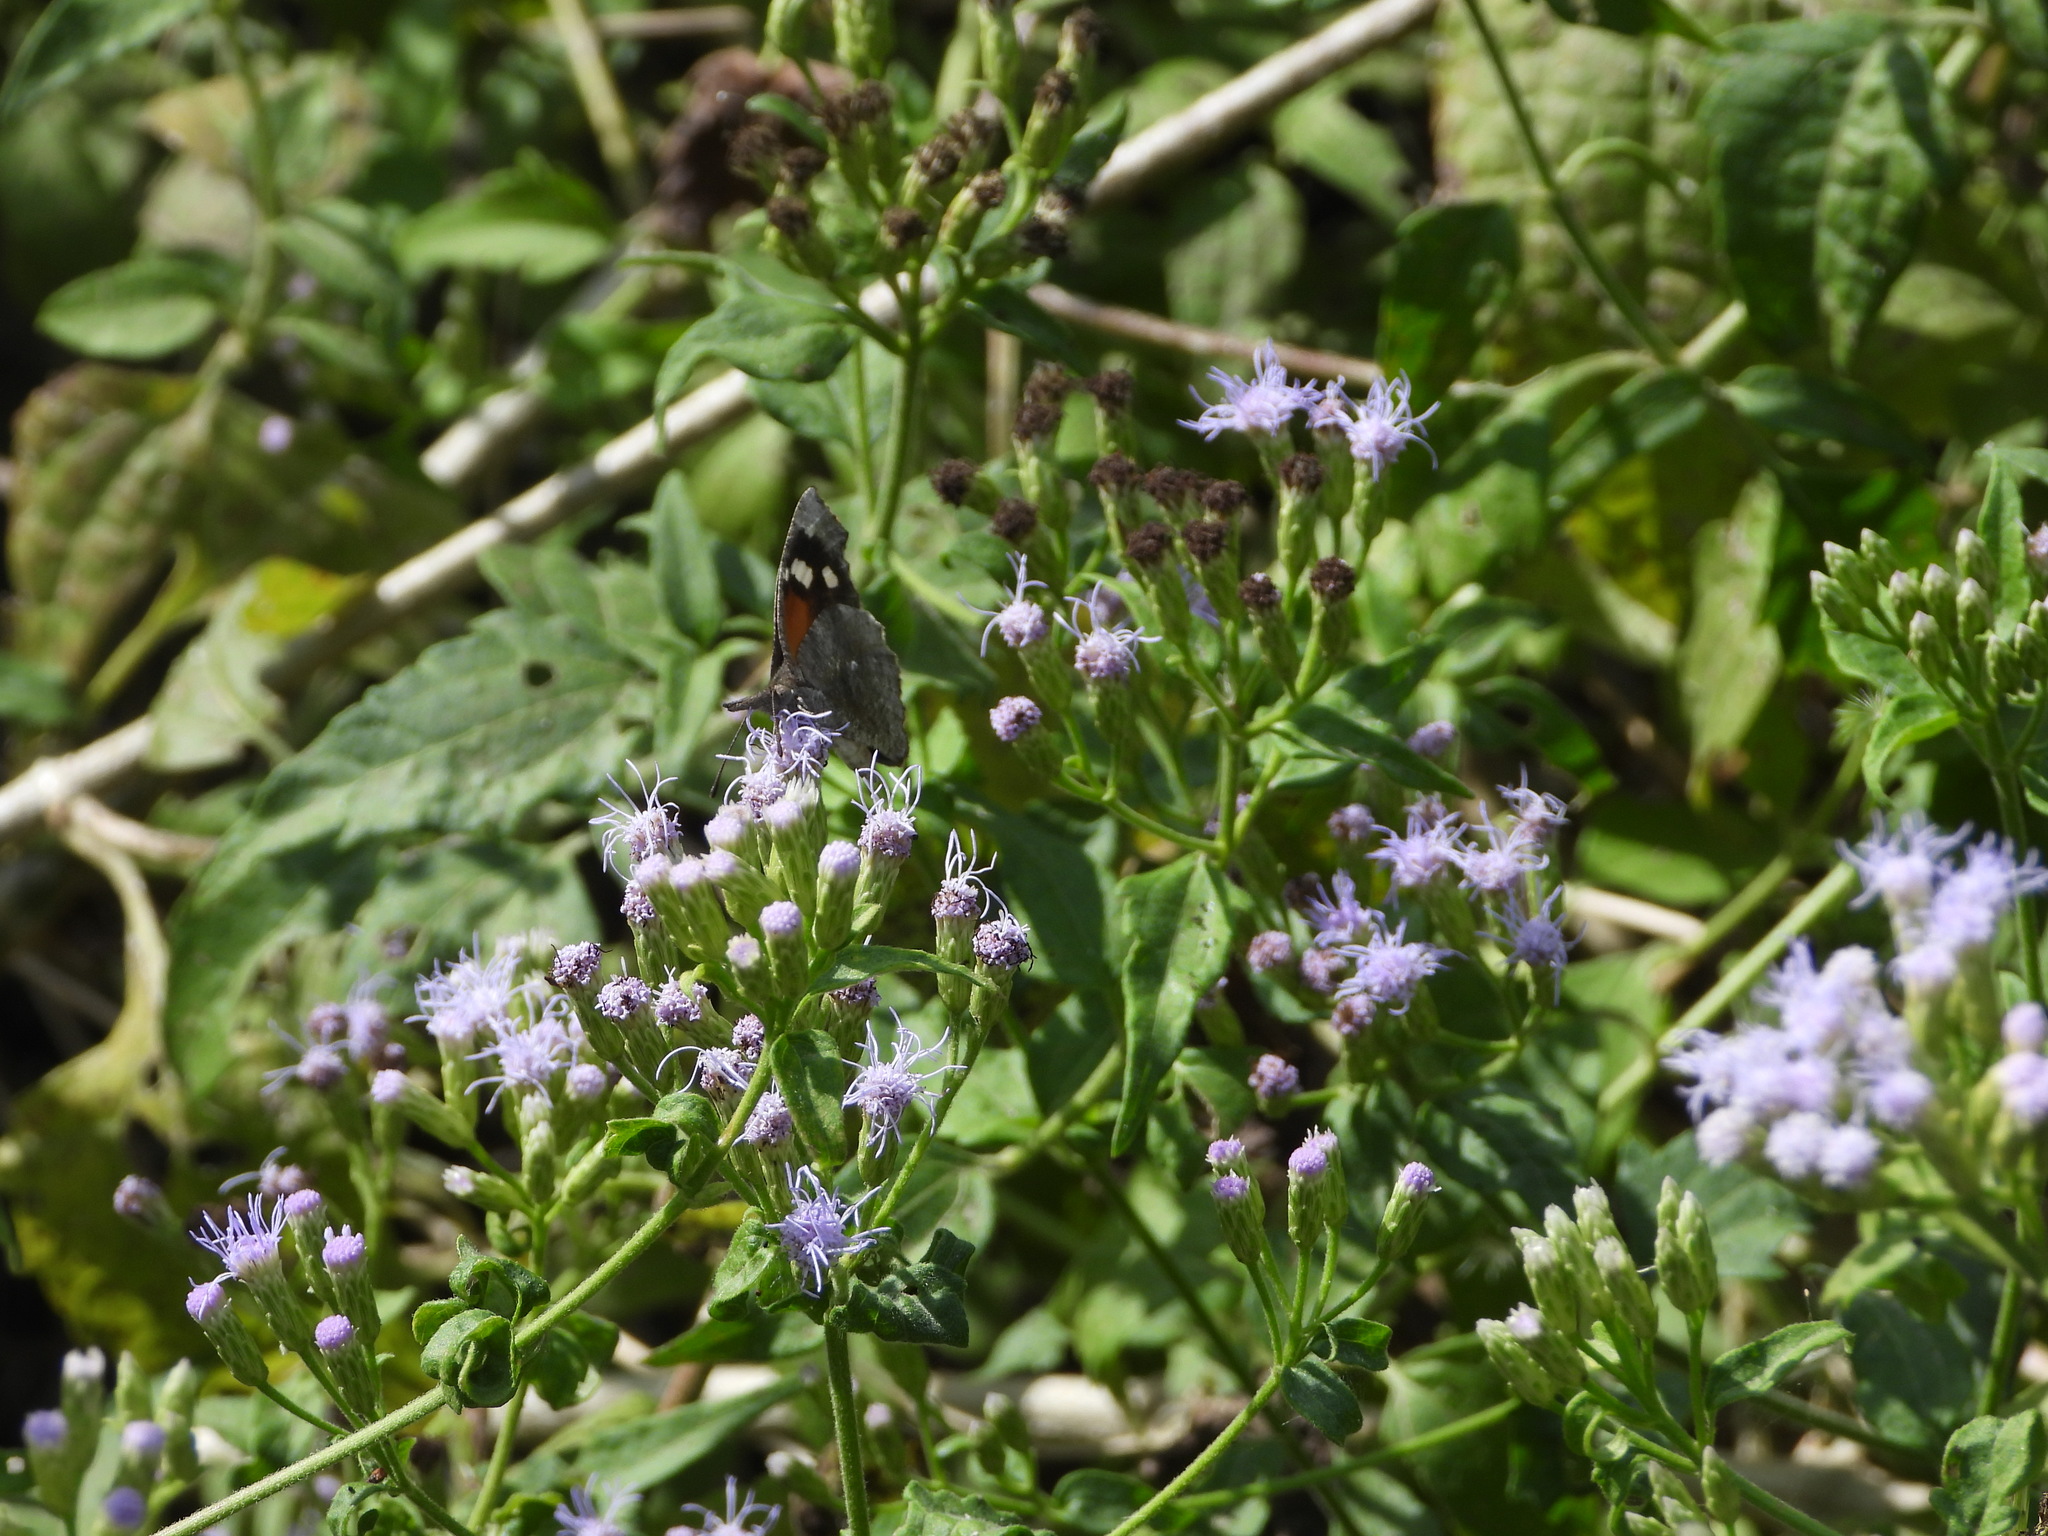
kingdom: Animalia
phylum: Arthropoda
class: Insecta
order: Lepidoptera
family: Nymphalidae
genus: Libytheana
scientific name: Libytheana carinenta
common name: American snout
